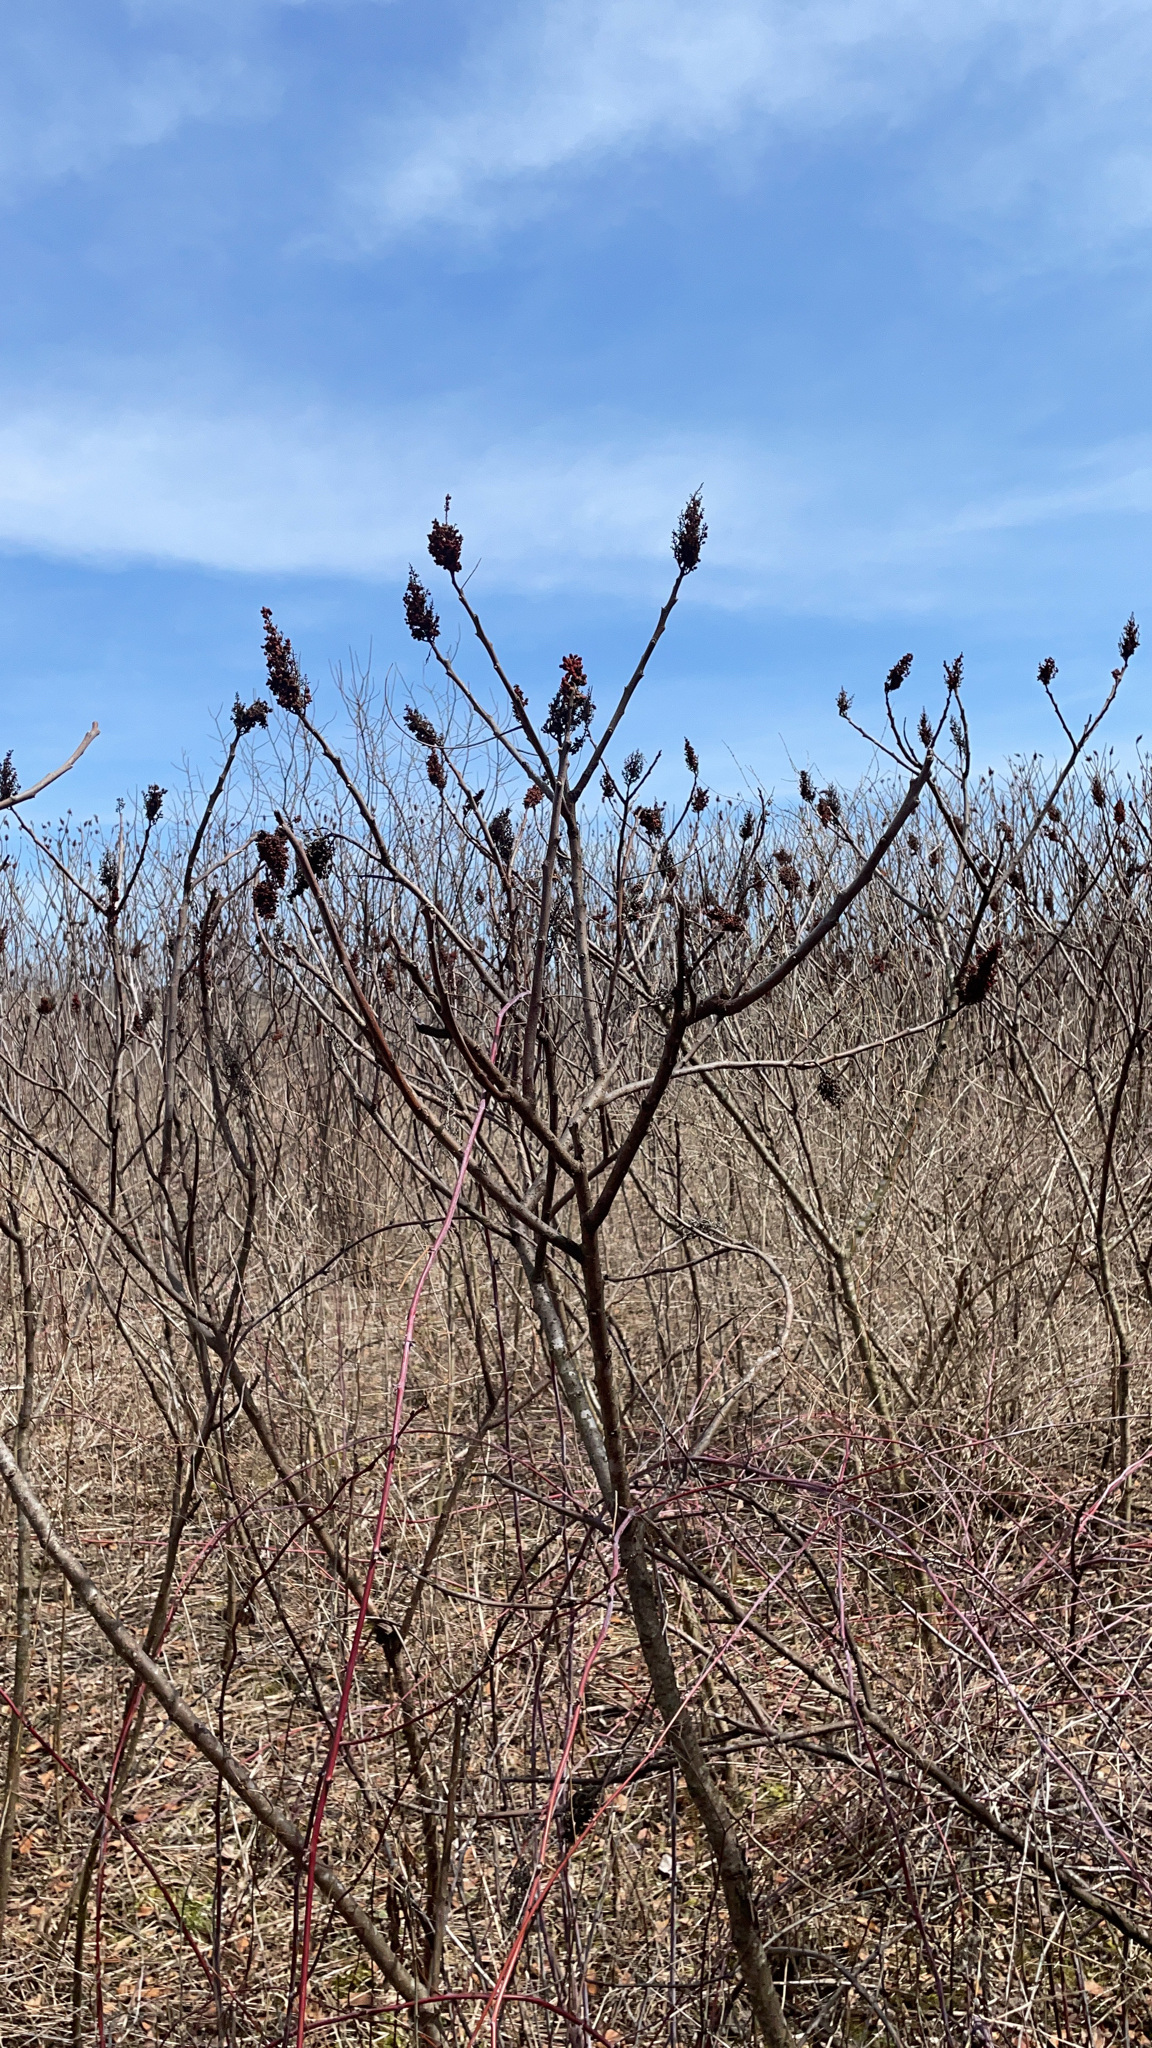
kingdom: Plantae
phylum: Tracheophyta
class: Magnoliopsida
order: Sapindales
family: Anacardiaceae
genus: Rhus
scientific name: Rhus typhina
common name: Staghorn sumac
